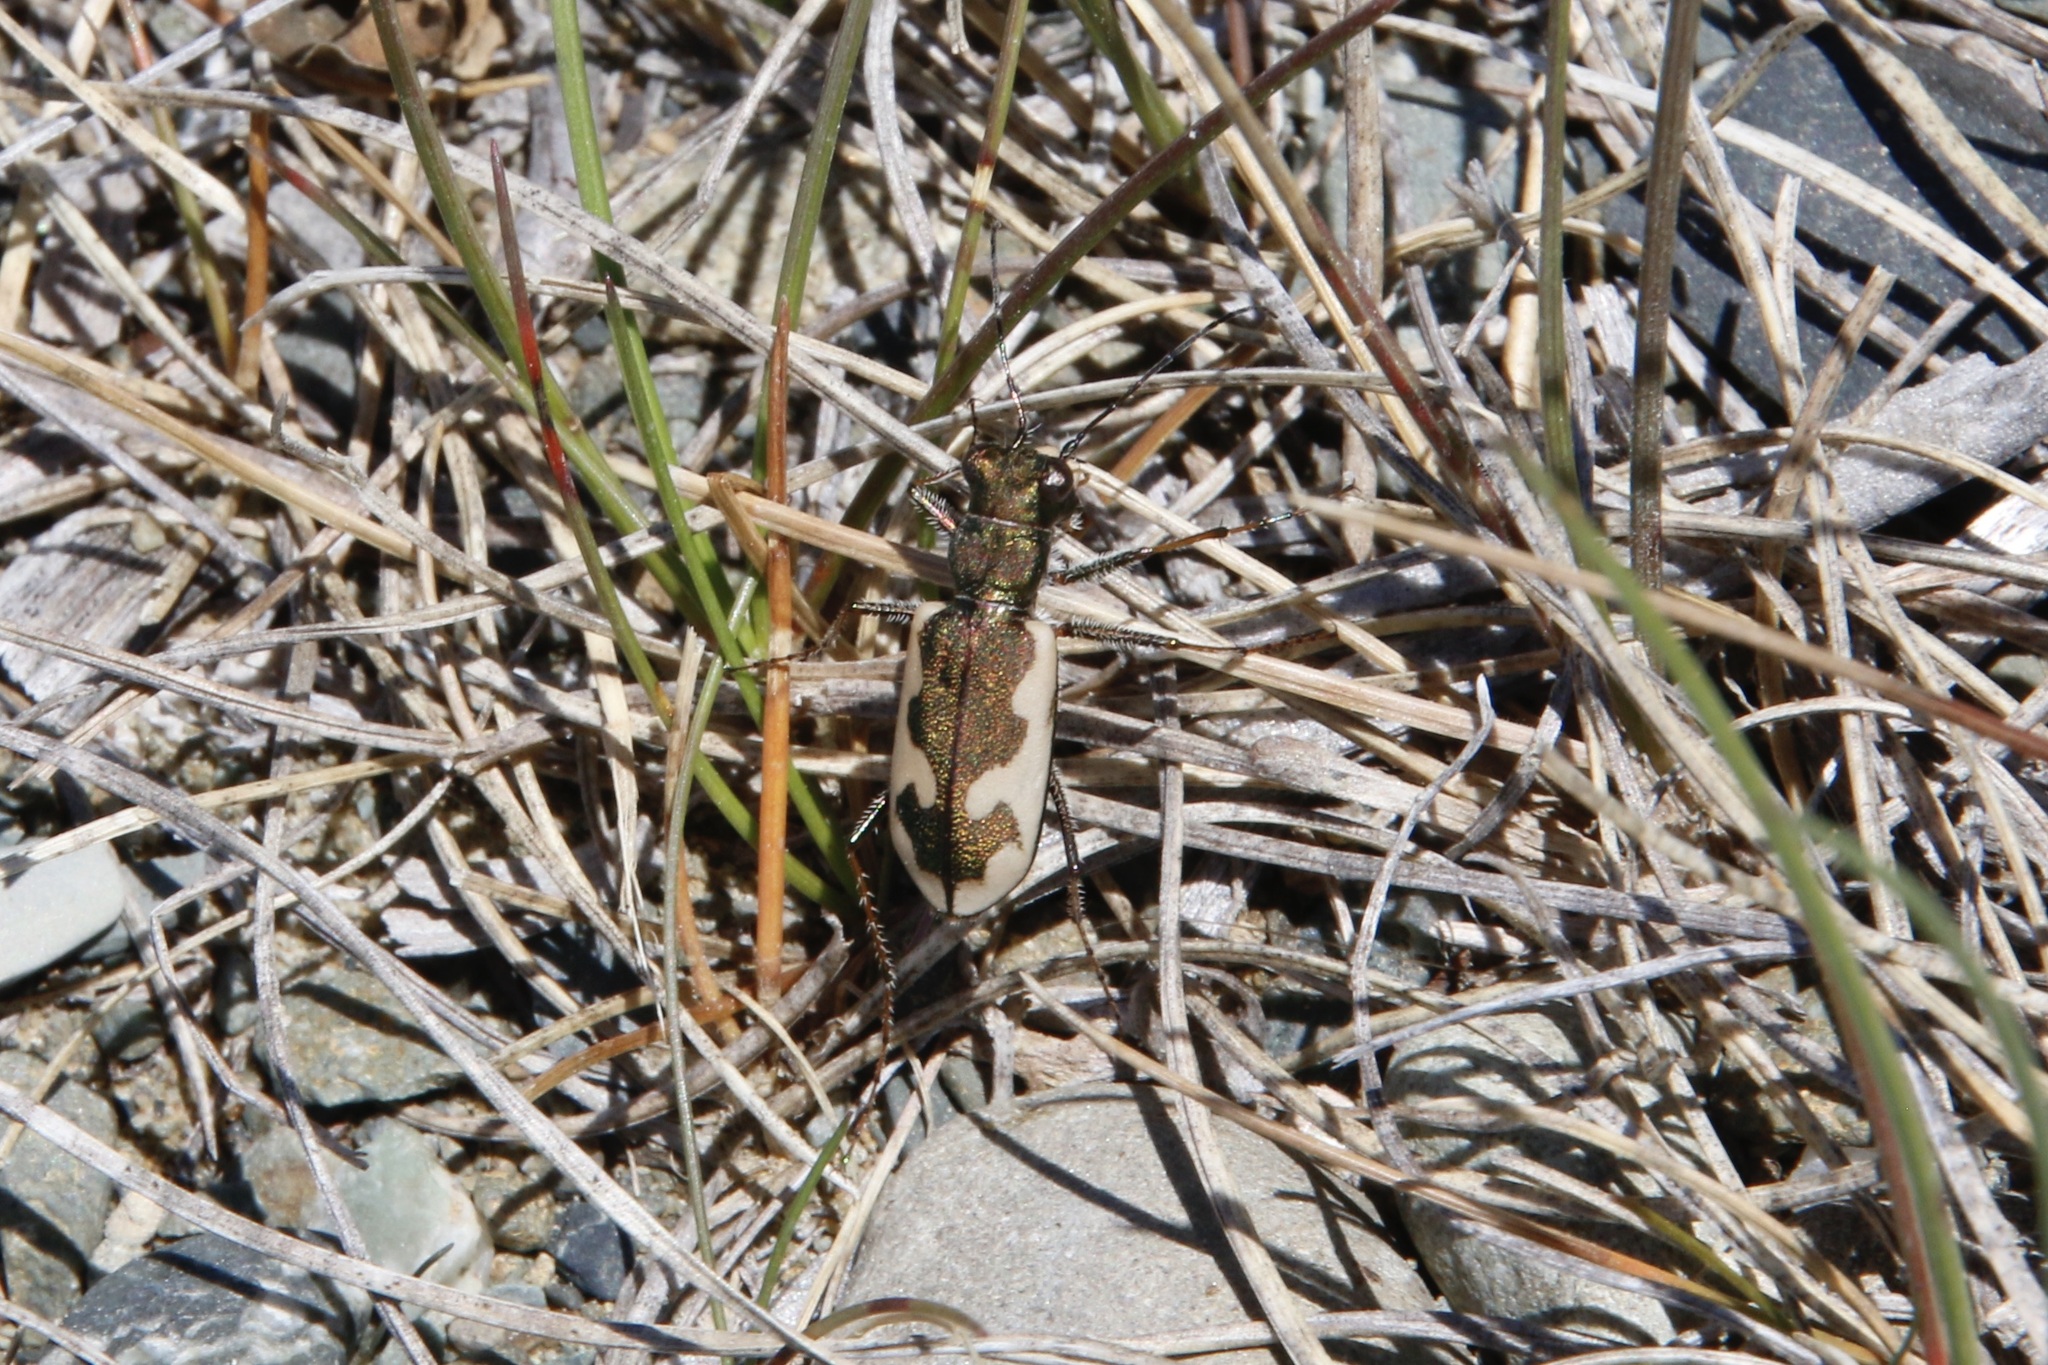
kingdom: Animalia
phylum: Arthropoda
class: Insecta
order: Coleoptera
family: Carabidae
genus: Neocicindela
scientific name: Neocicindela latecincta
